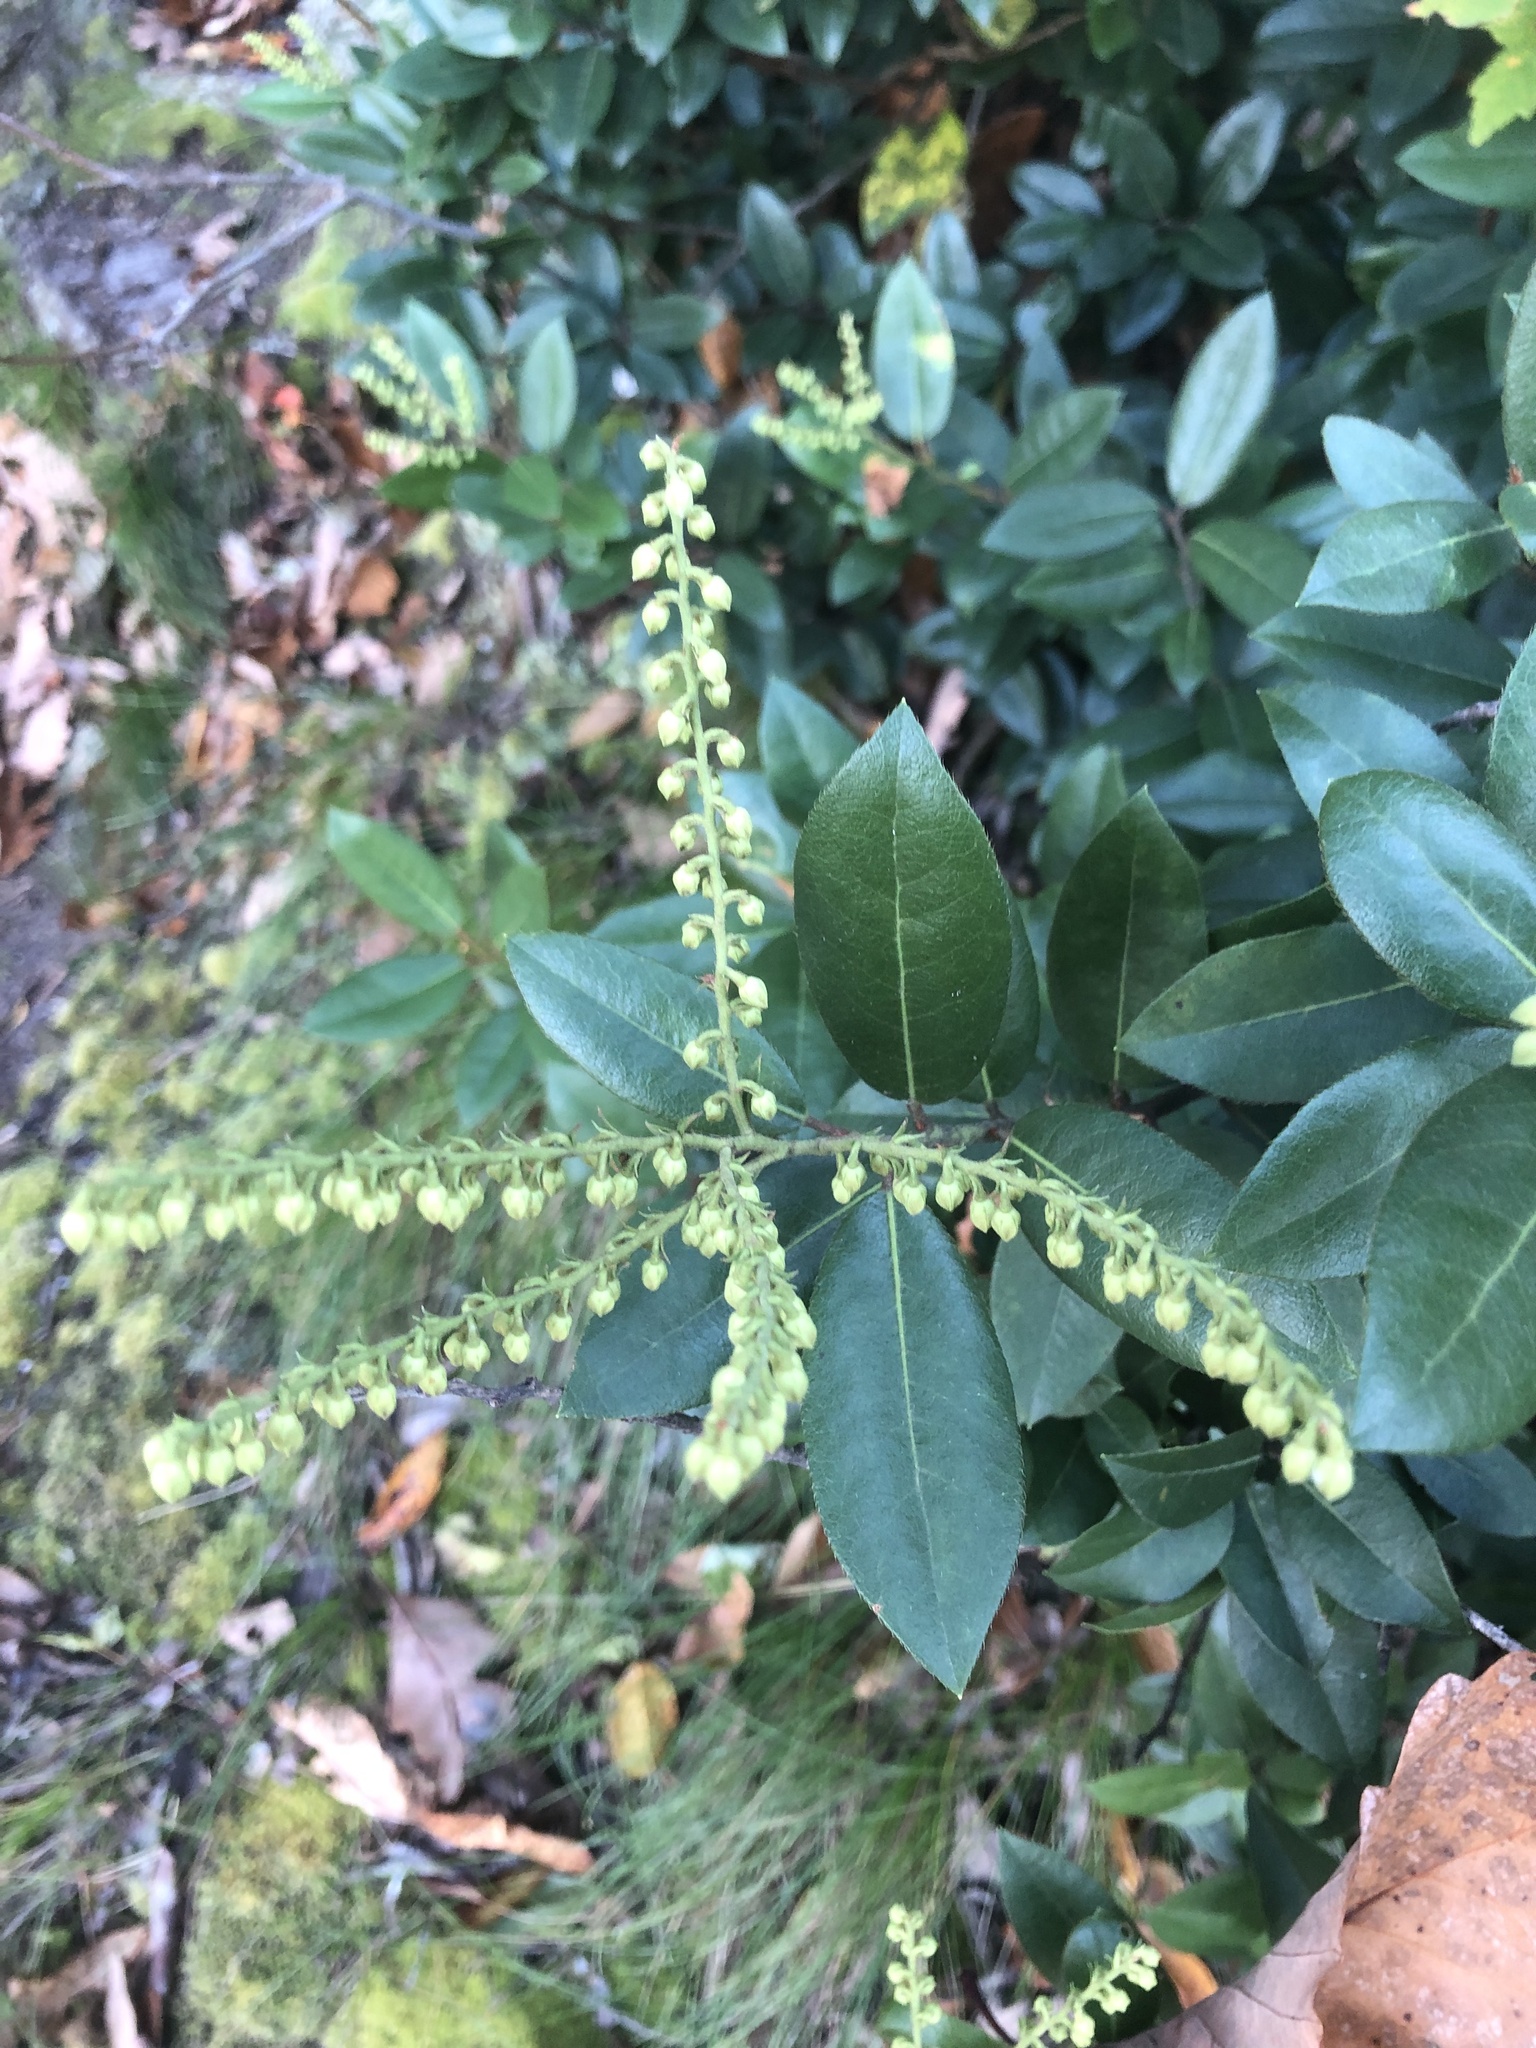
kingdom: Plantae
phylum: Tracheophyta
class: Magnoliopsida
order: Ericales
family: Ericaceae
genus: Pieris
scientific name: Pieris floribunda
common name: Flutterbush
